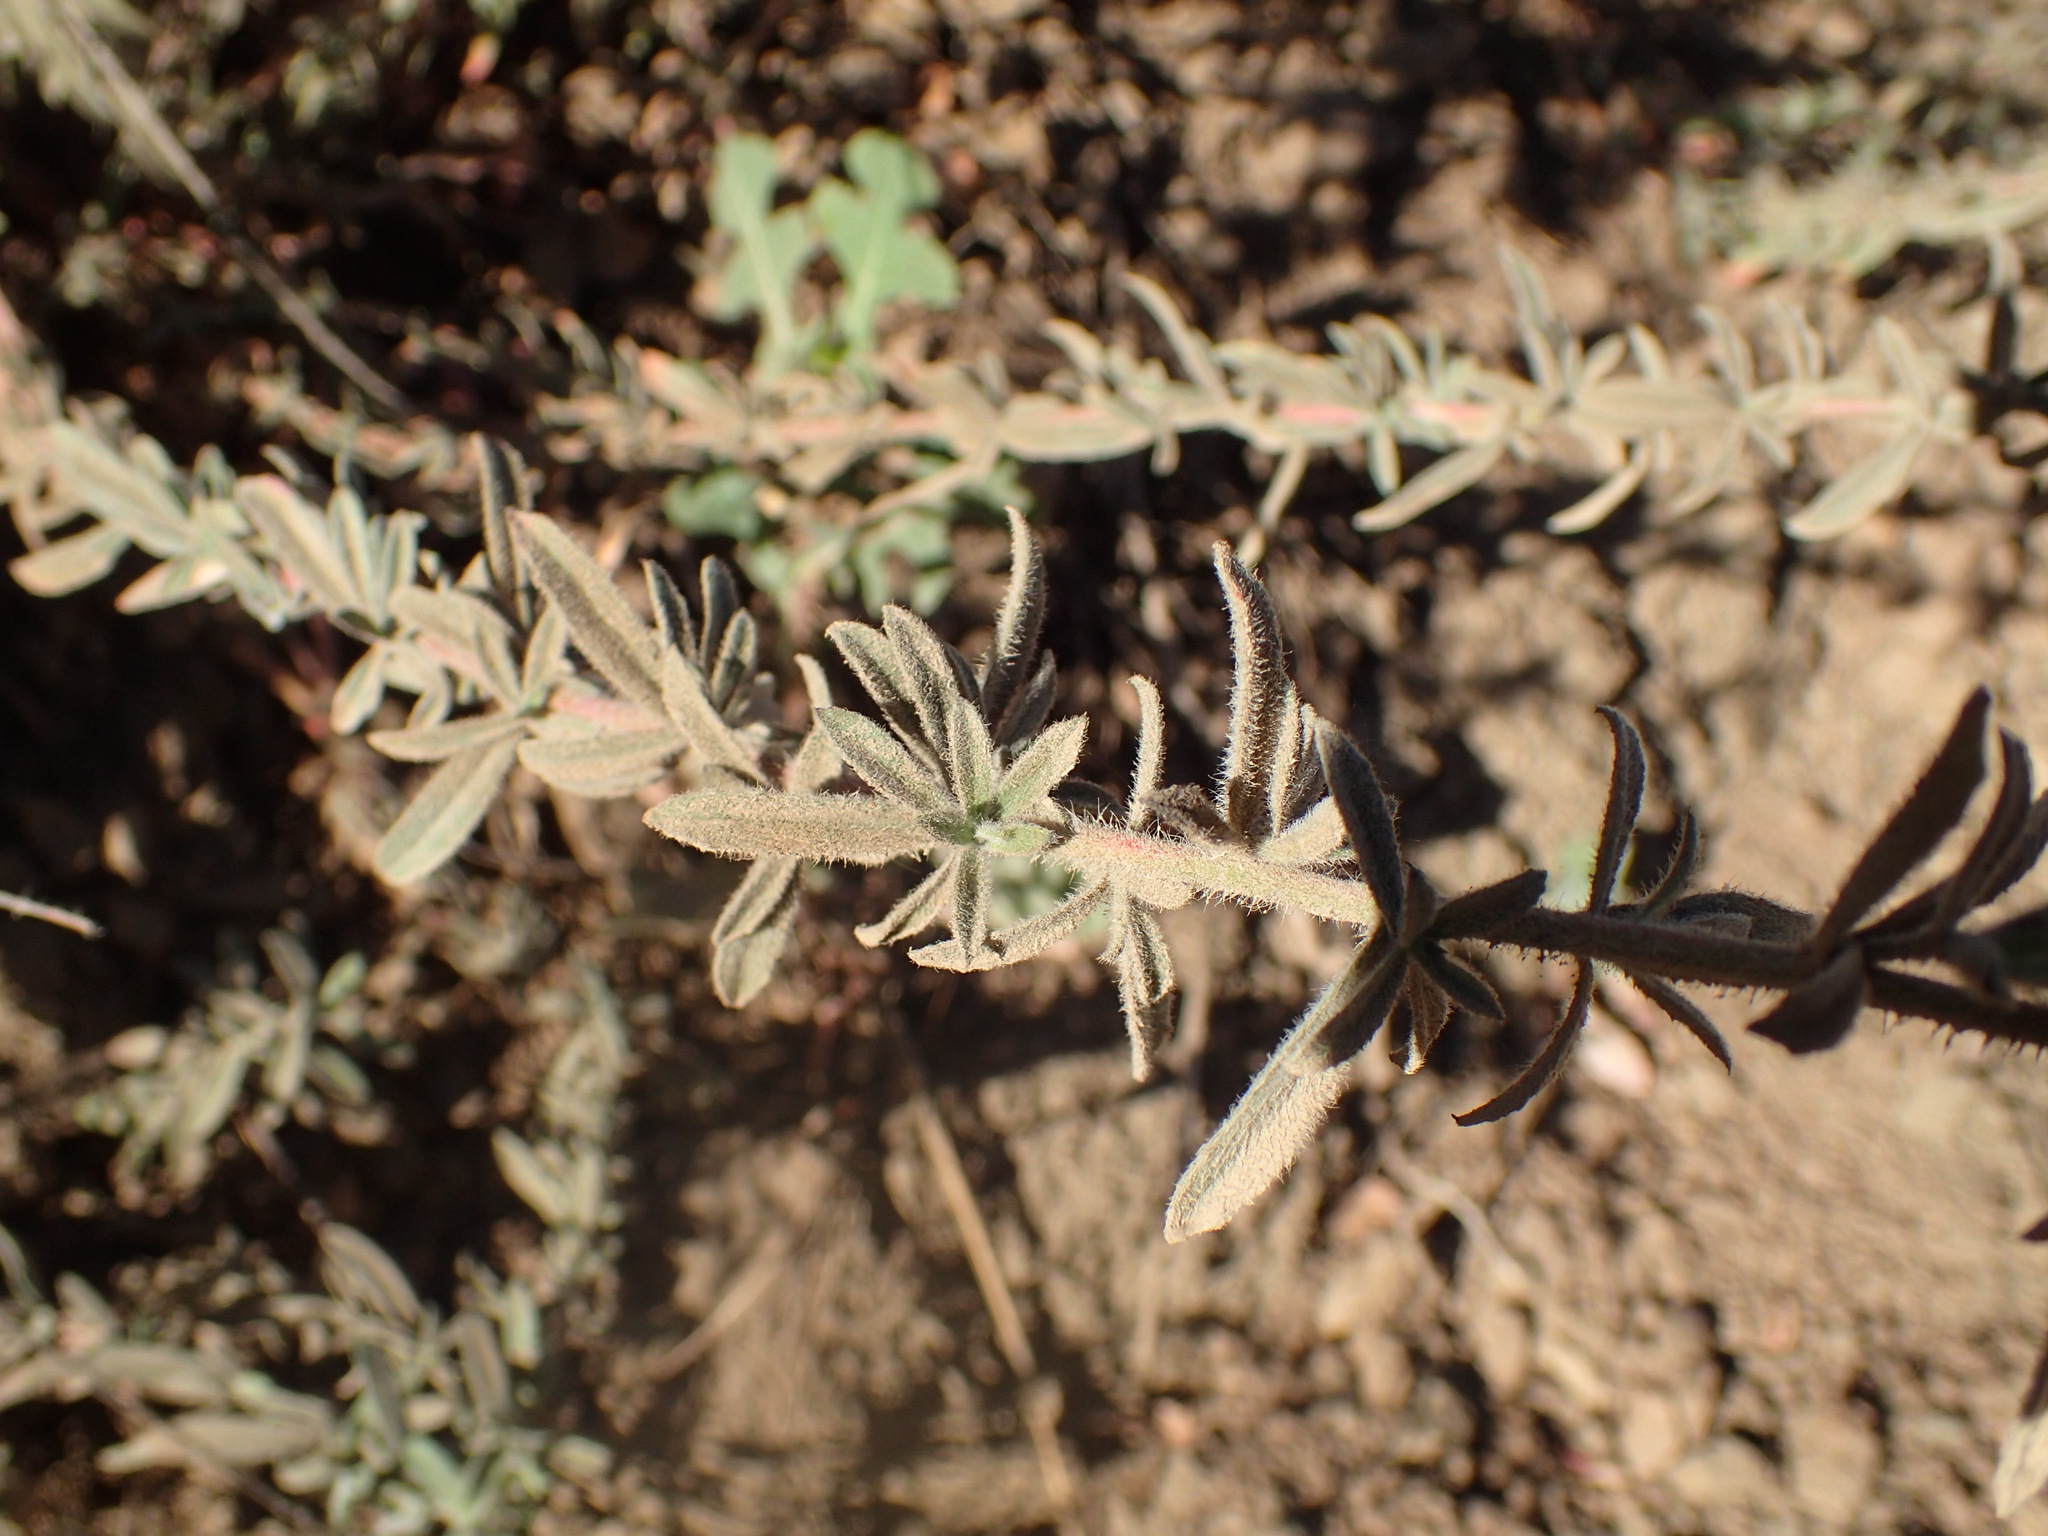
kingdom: Plantae
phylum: Tracheophyta
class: Magnoliopsida
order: Myrtales
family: Onagraceae
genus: Epilobium
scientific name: Epilobium canum
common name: California-fuchsia
